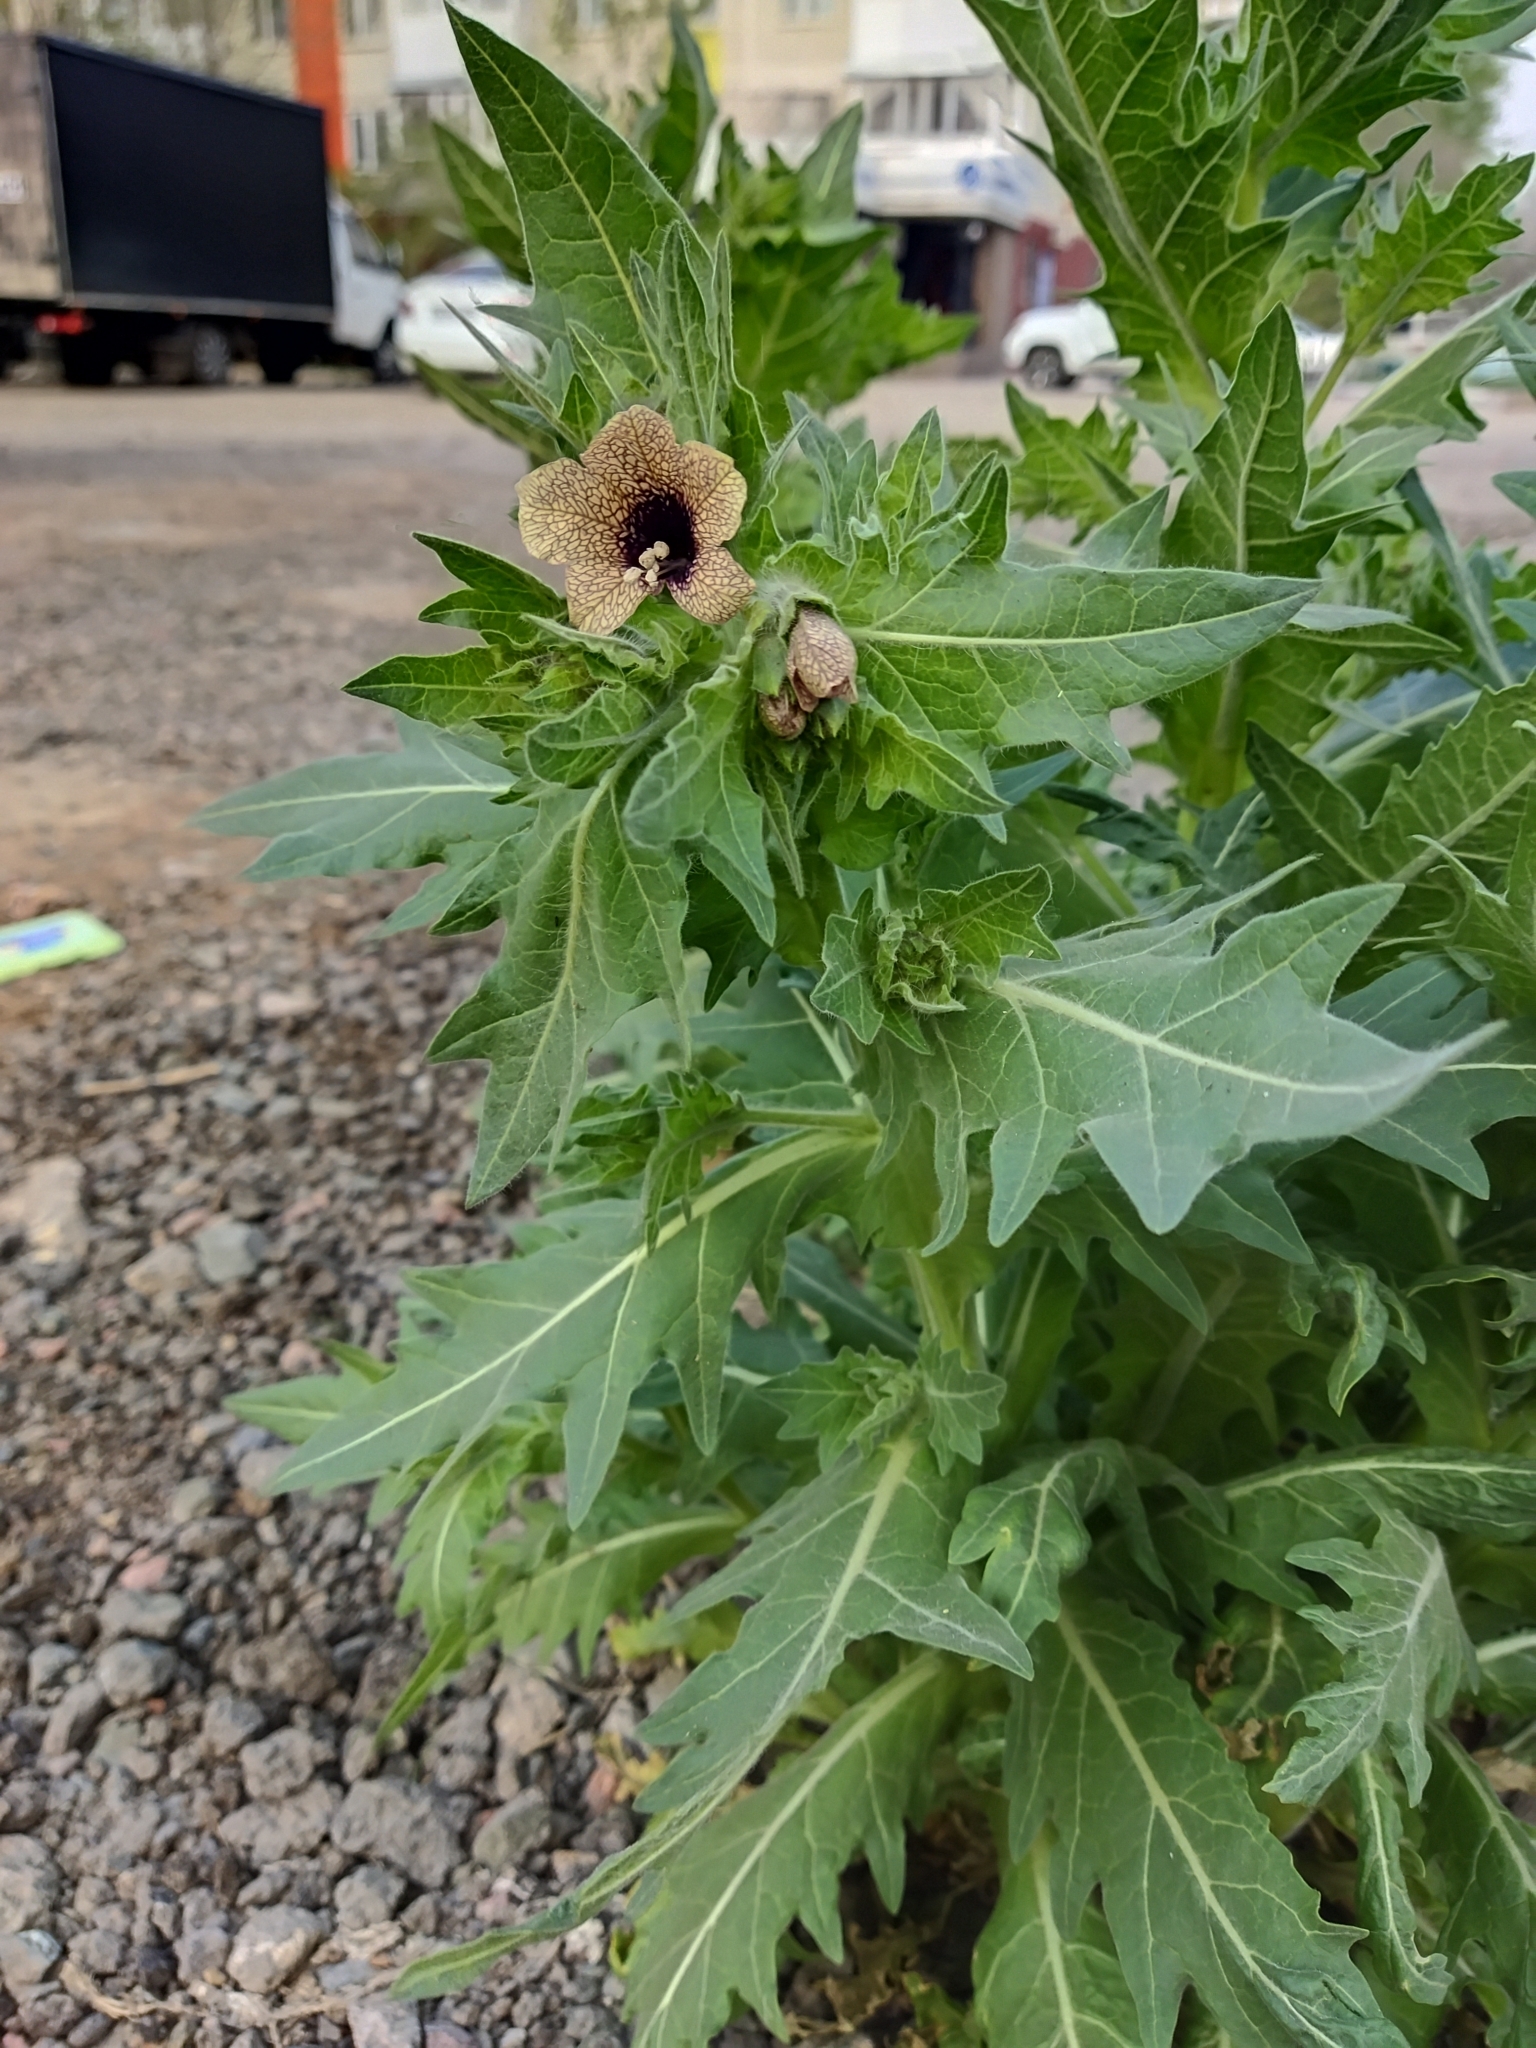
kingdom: Plantae
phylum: Tracheophyta
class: Magnoliopsida
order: Solanales
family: Solanaceae
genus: Hyoscyamus
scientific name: Hyoscyamus niger
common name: Henbane
